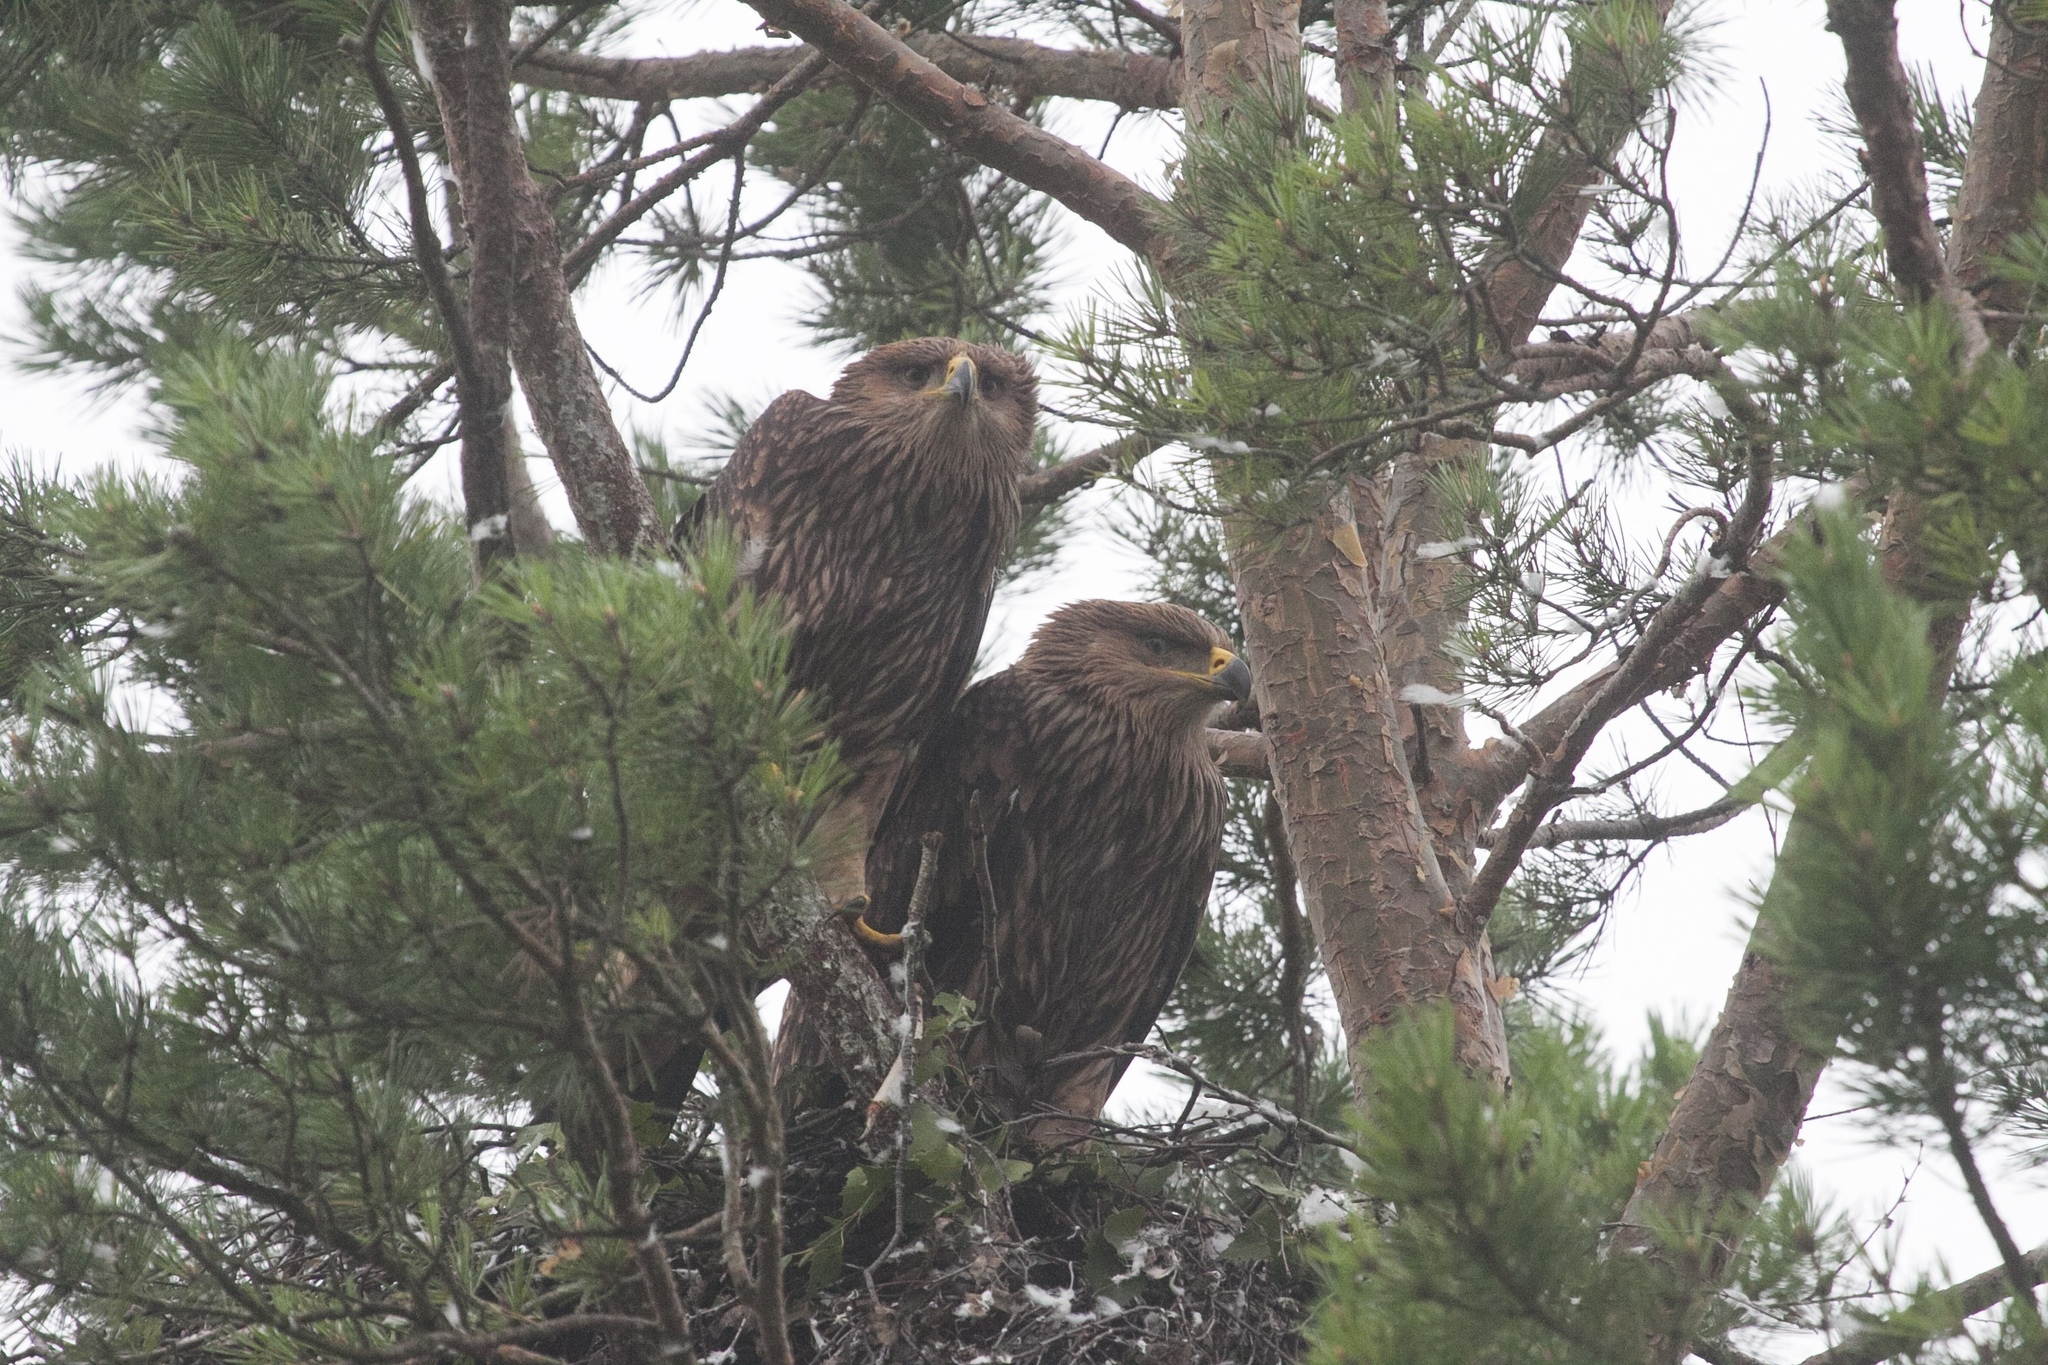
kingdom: Animalia
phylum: Chordata
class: Aves
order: Accipitriformes
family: Accipitridae
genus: Aquila
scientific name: Aquila heliaca
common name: Eastern imperial eagle
